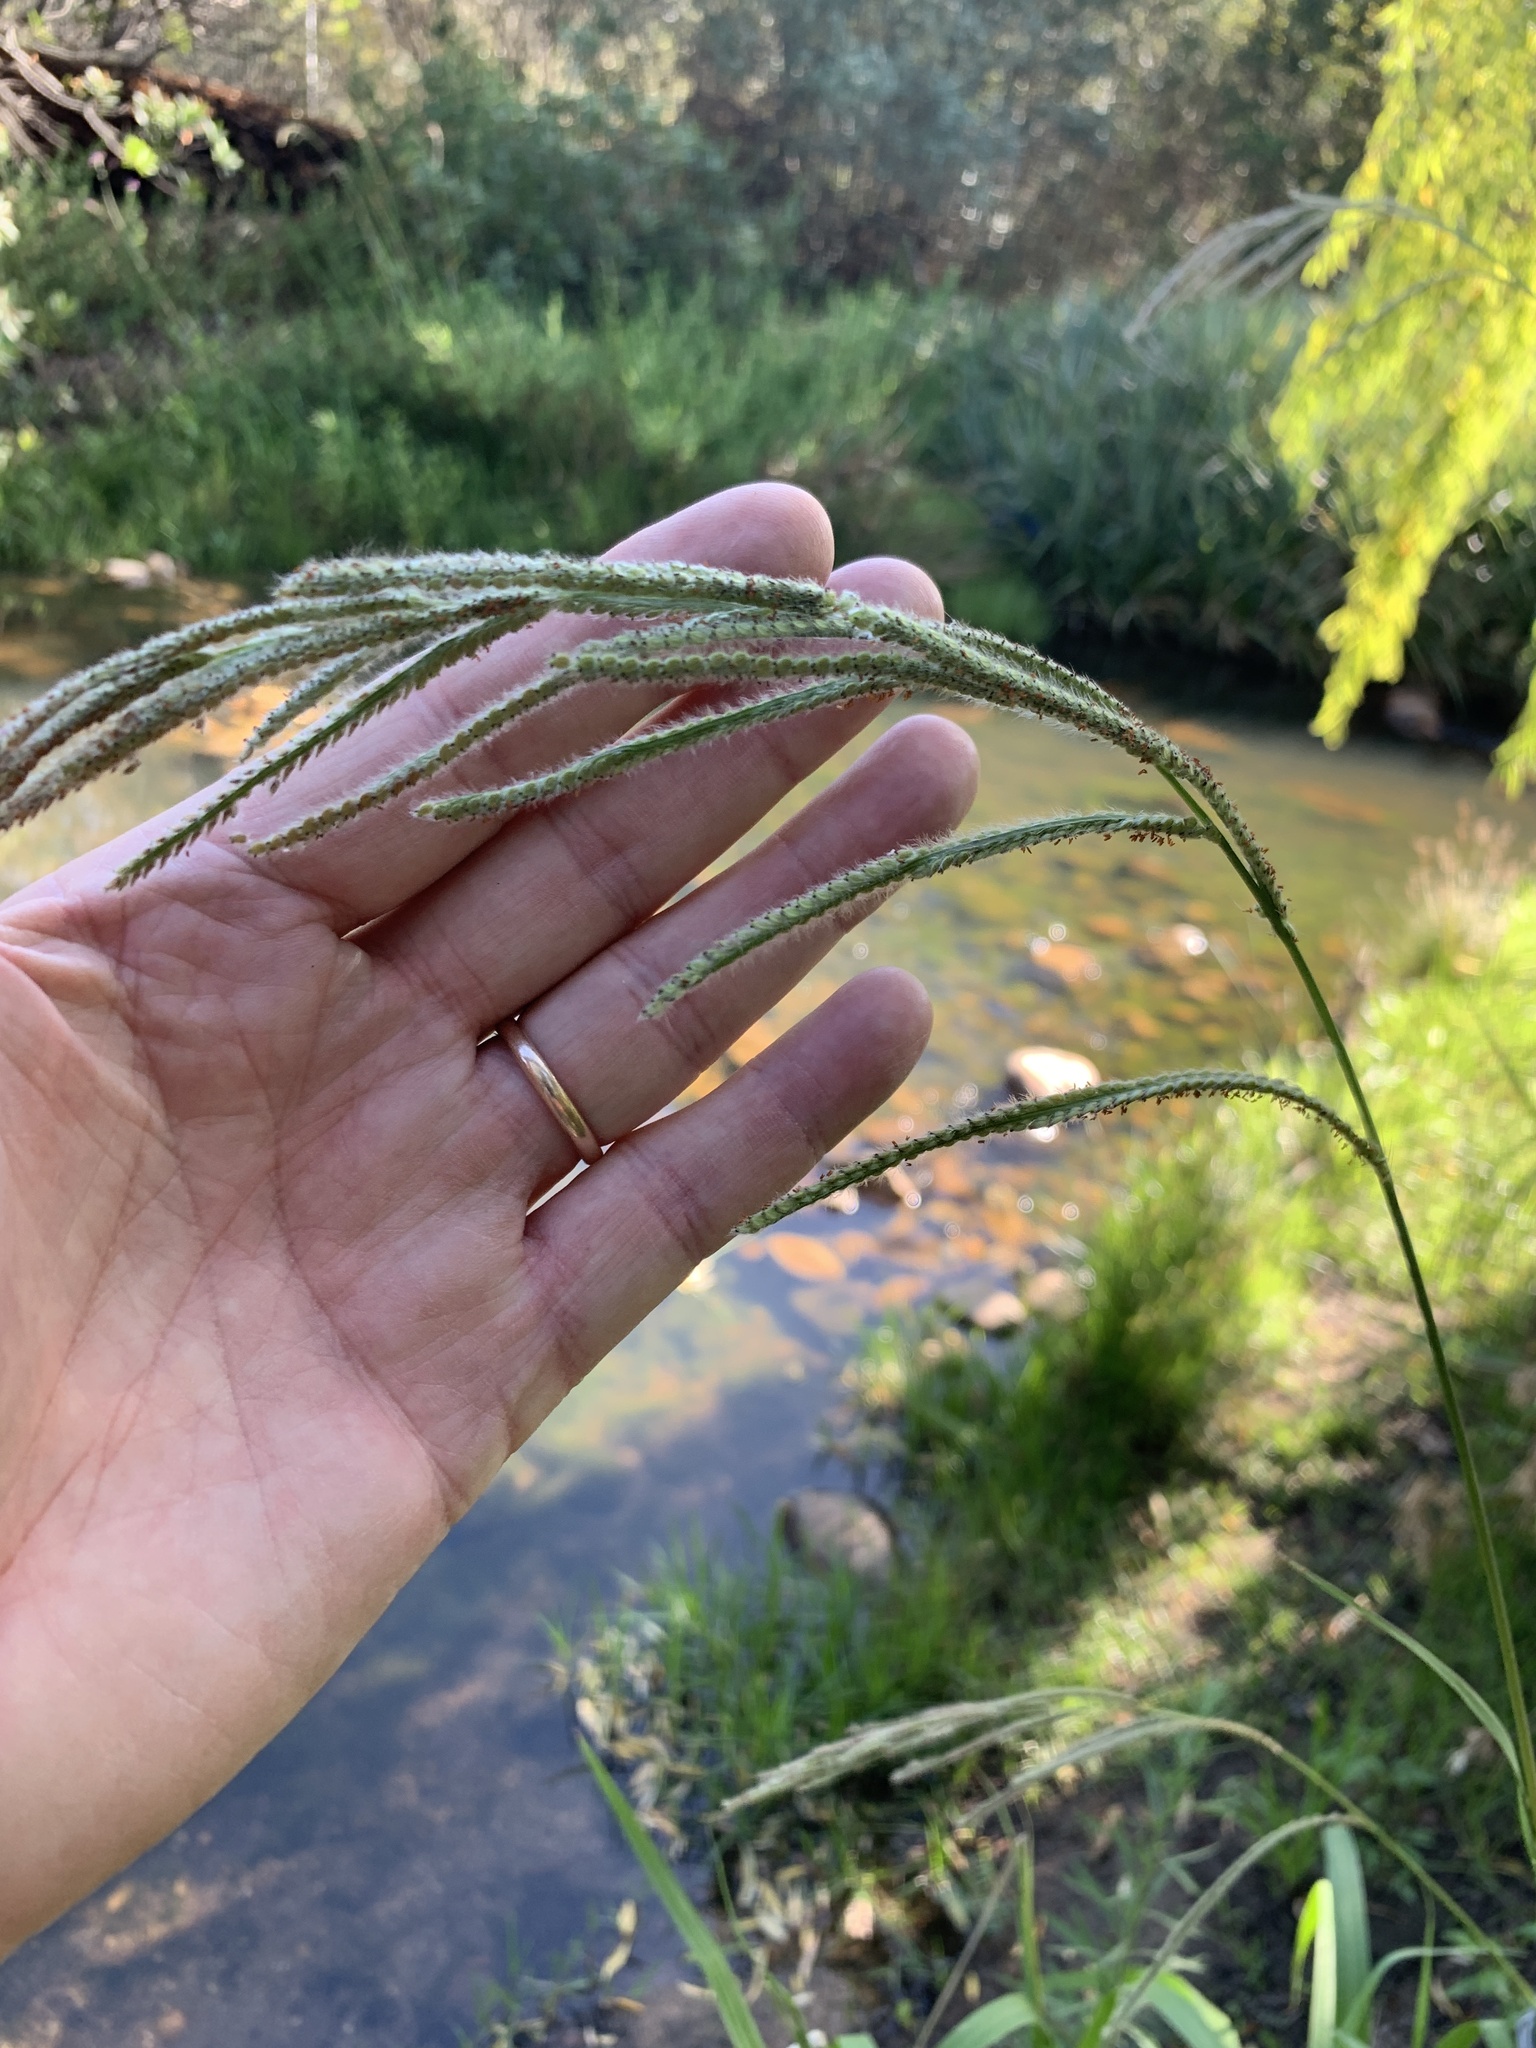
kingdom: Plantae
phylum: Tracheophyta
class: Liliopsida
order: Poales
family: Poaceae
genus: Paspalum
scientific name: Paspalum urvillei
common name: Vasey's grass
